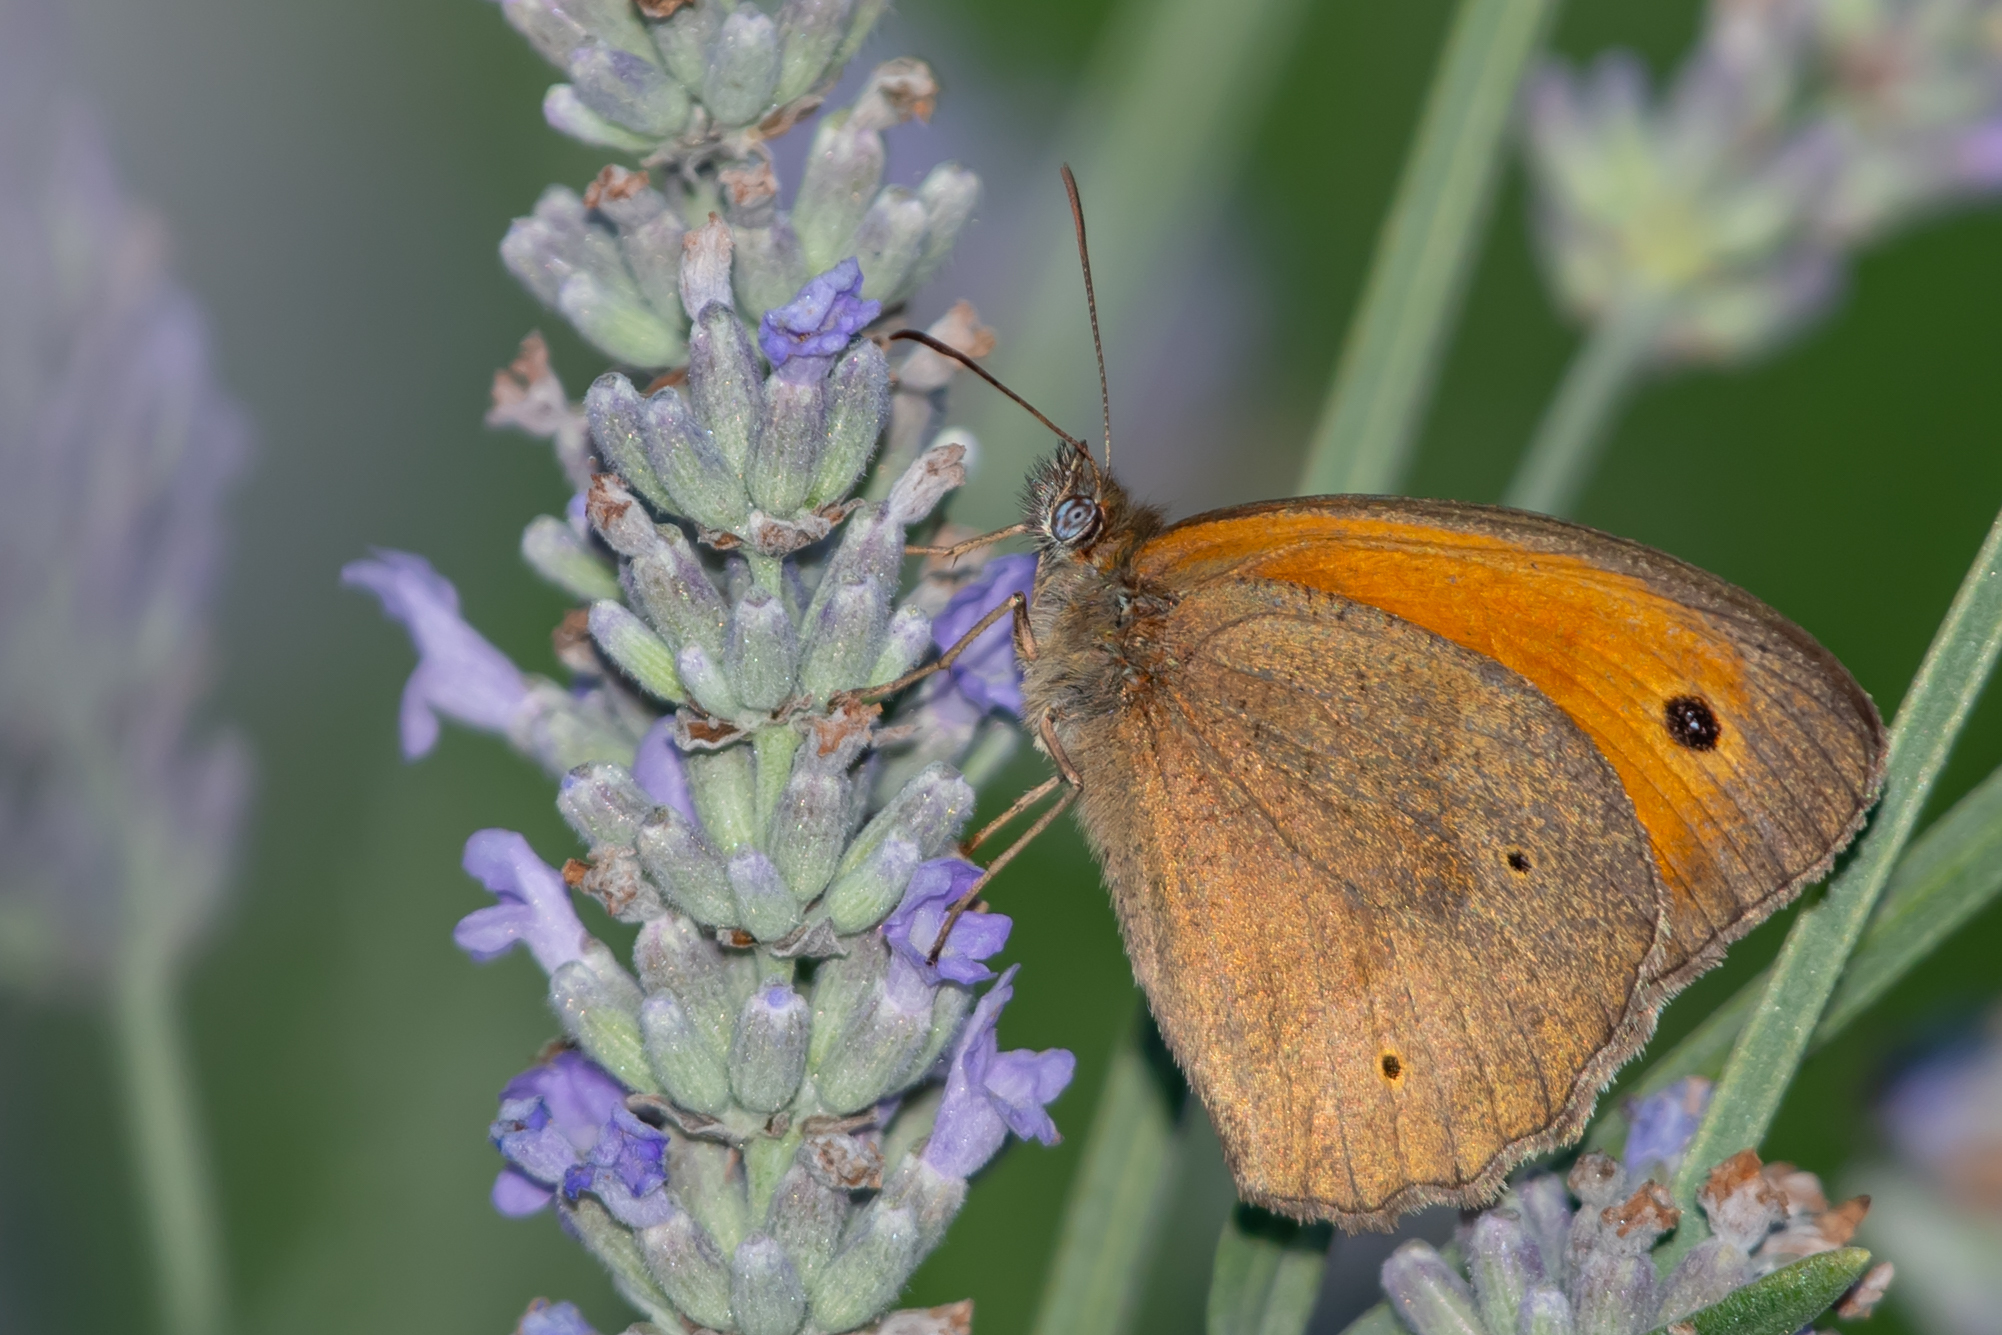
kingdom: Animalia
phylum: Arthropoda
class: Insecta
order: Lepidoptera
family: Nymphalidae
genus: Maniola
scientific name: Maniola jurtina
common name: Meadow brown
